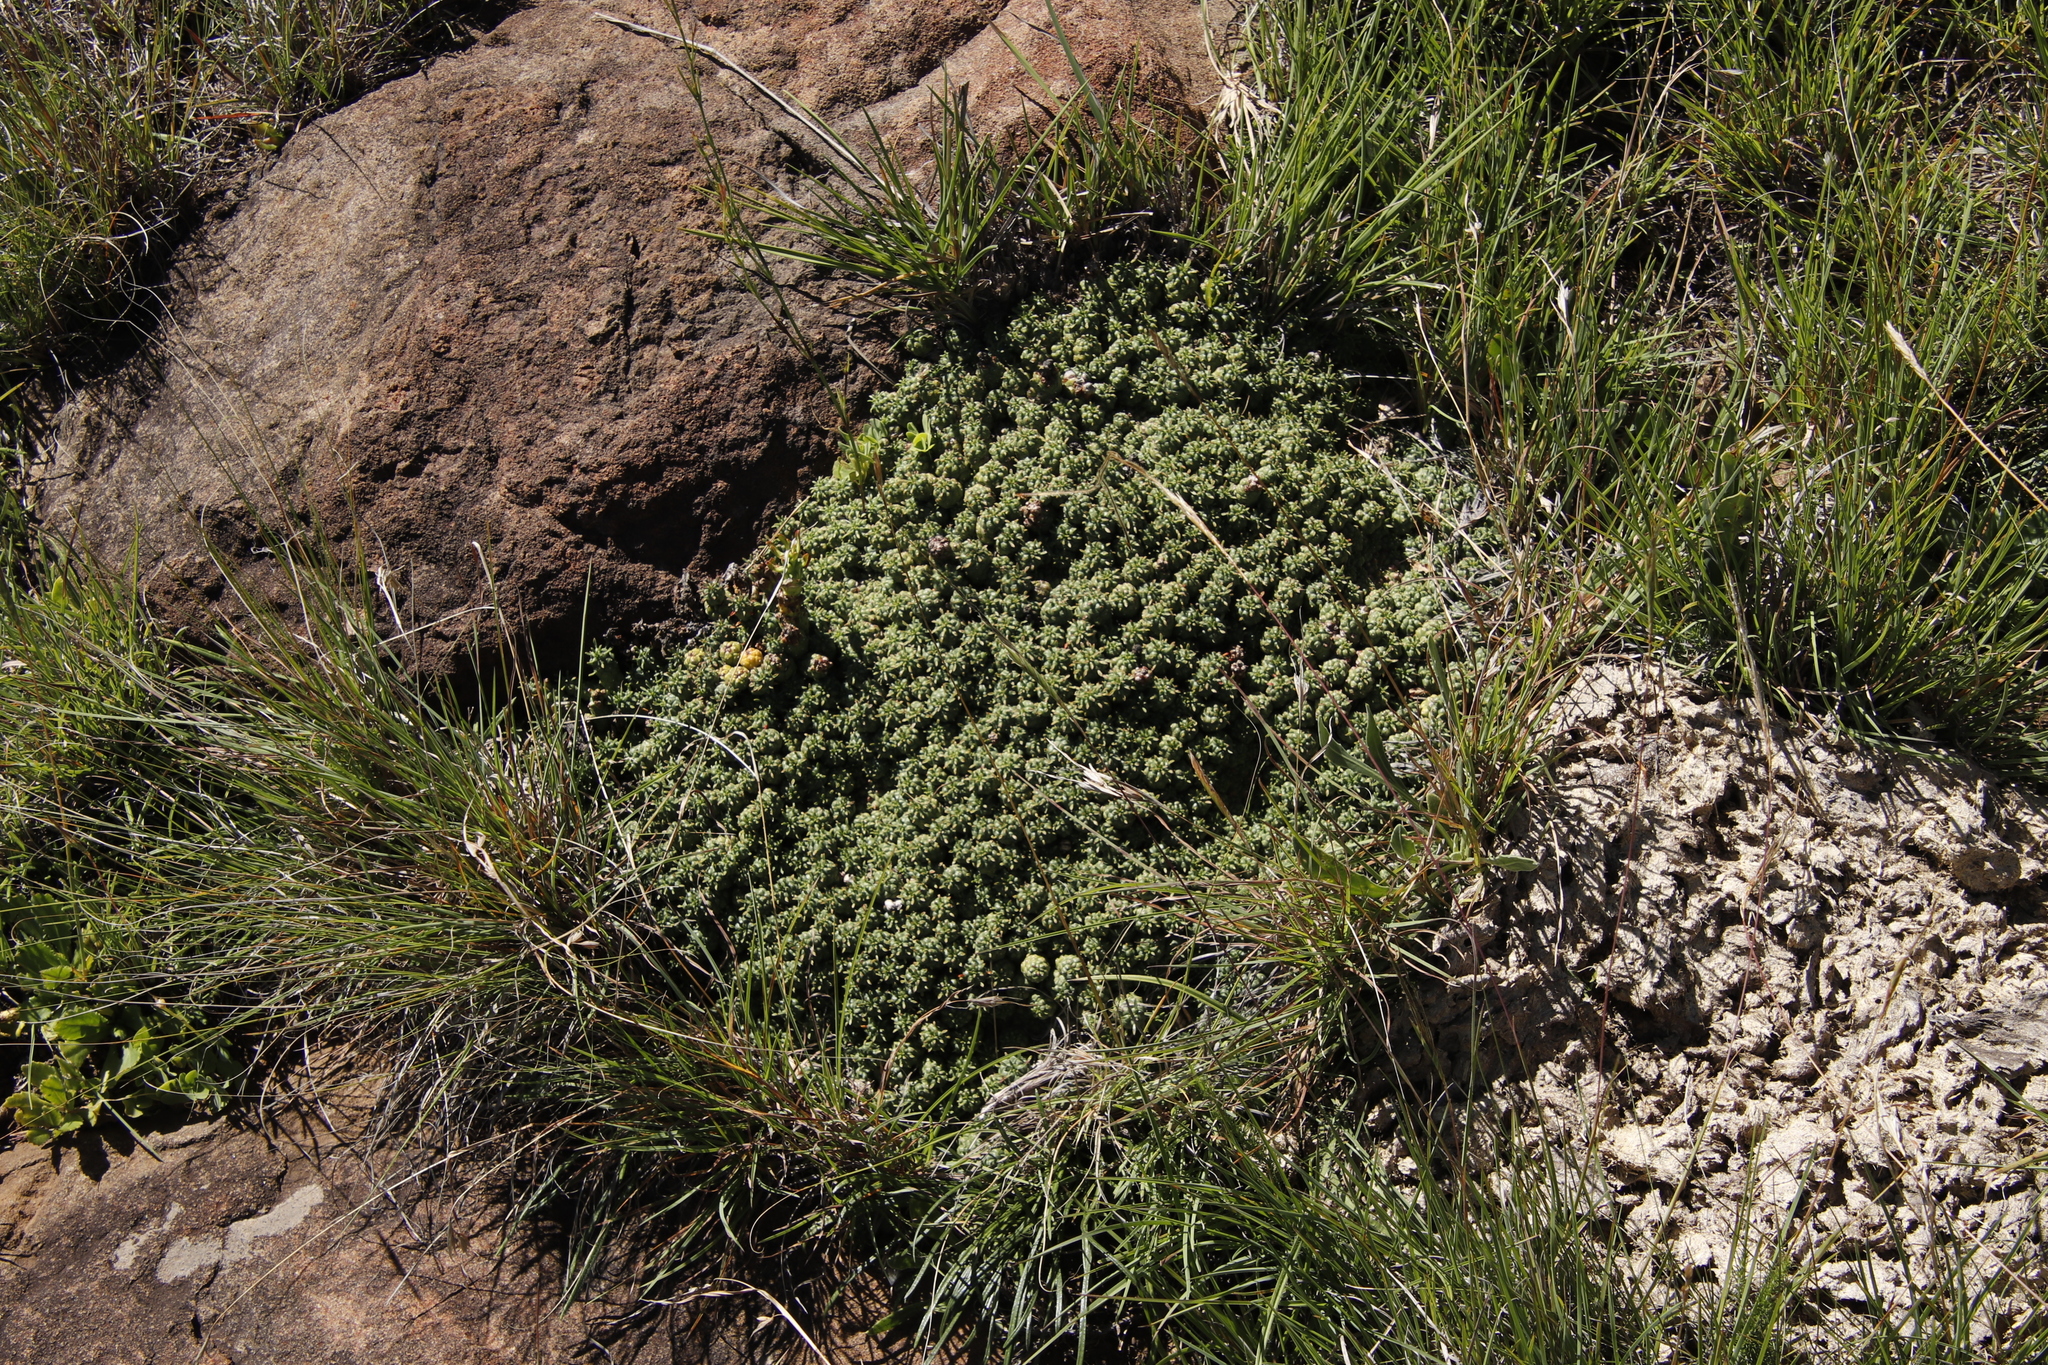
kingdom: Plantae
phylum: Tracheophyta
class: Magnoliopsida
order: Malpighiales
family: Euphorbiaceae
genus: Euphorbia
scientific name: Euphorbia clavarioides
